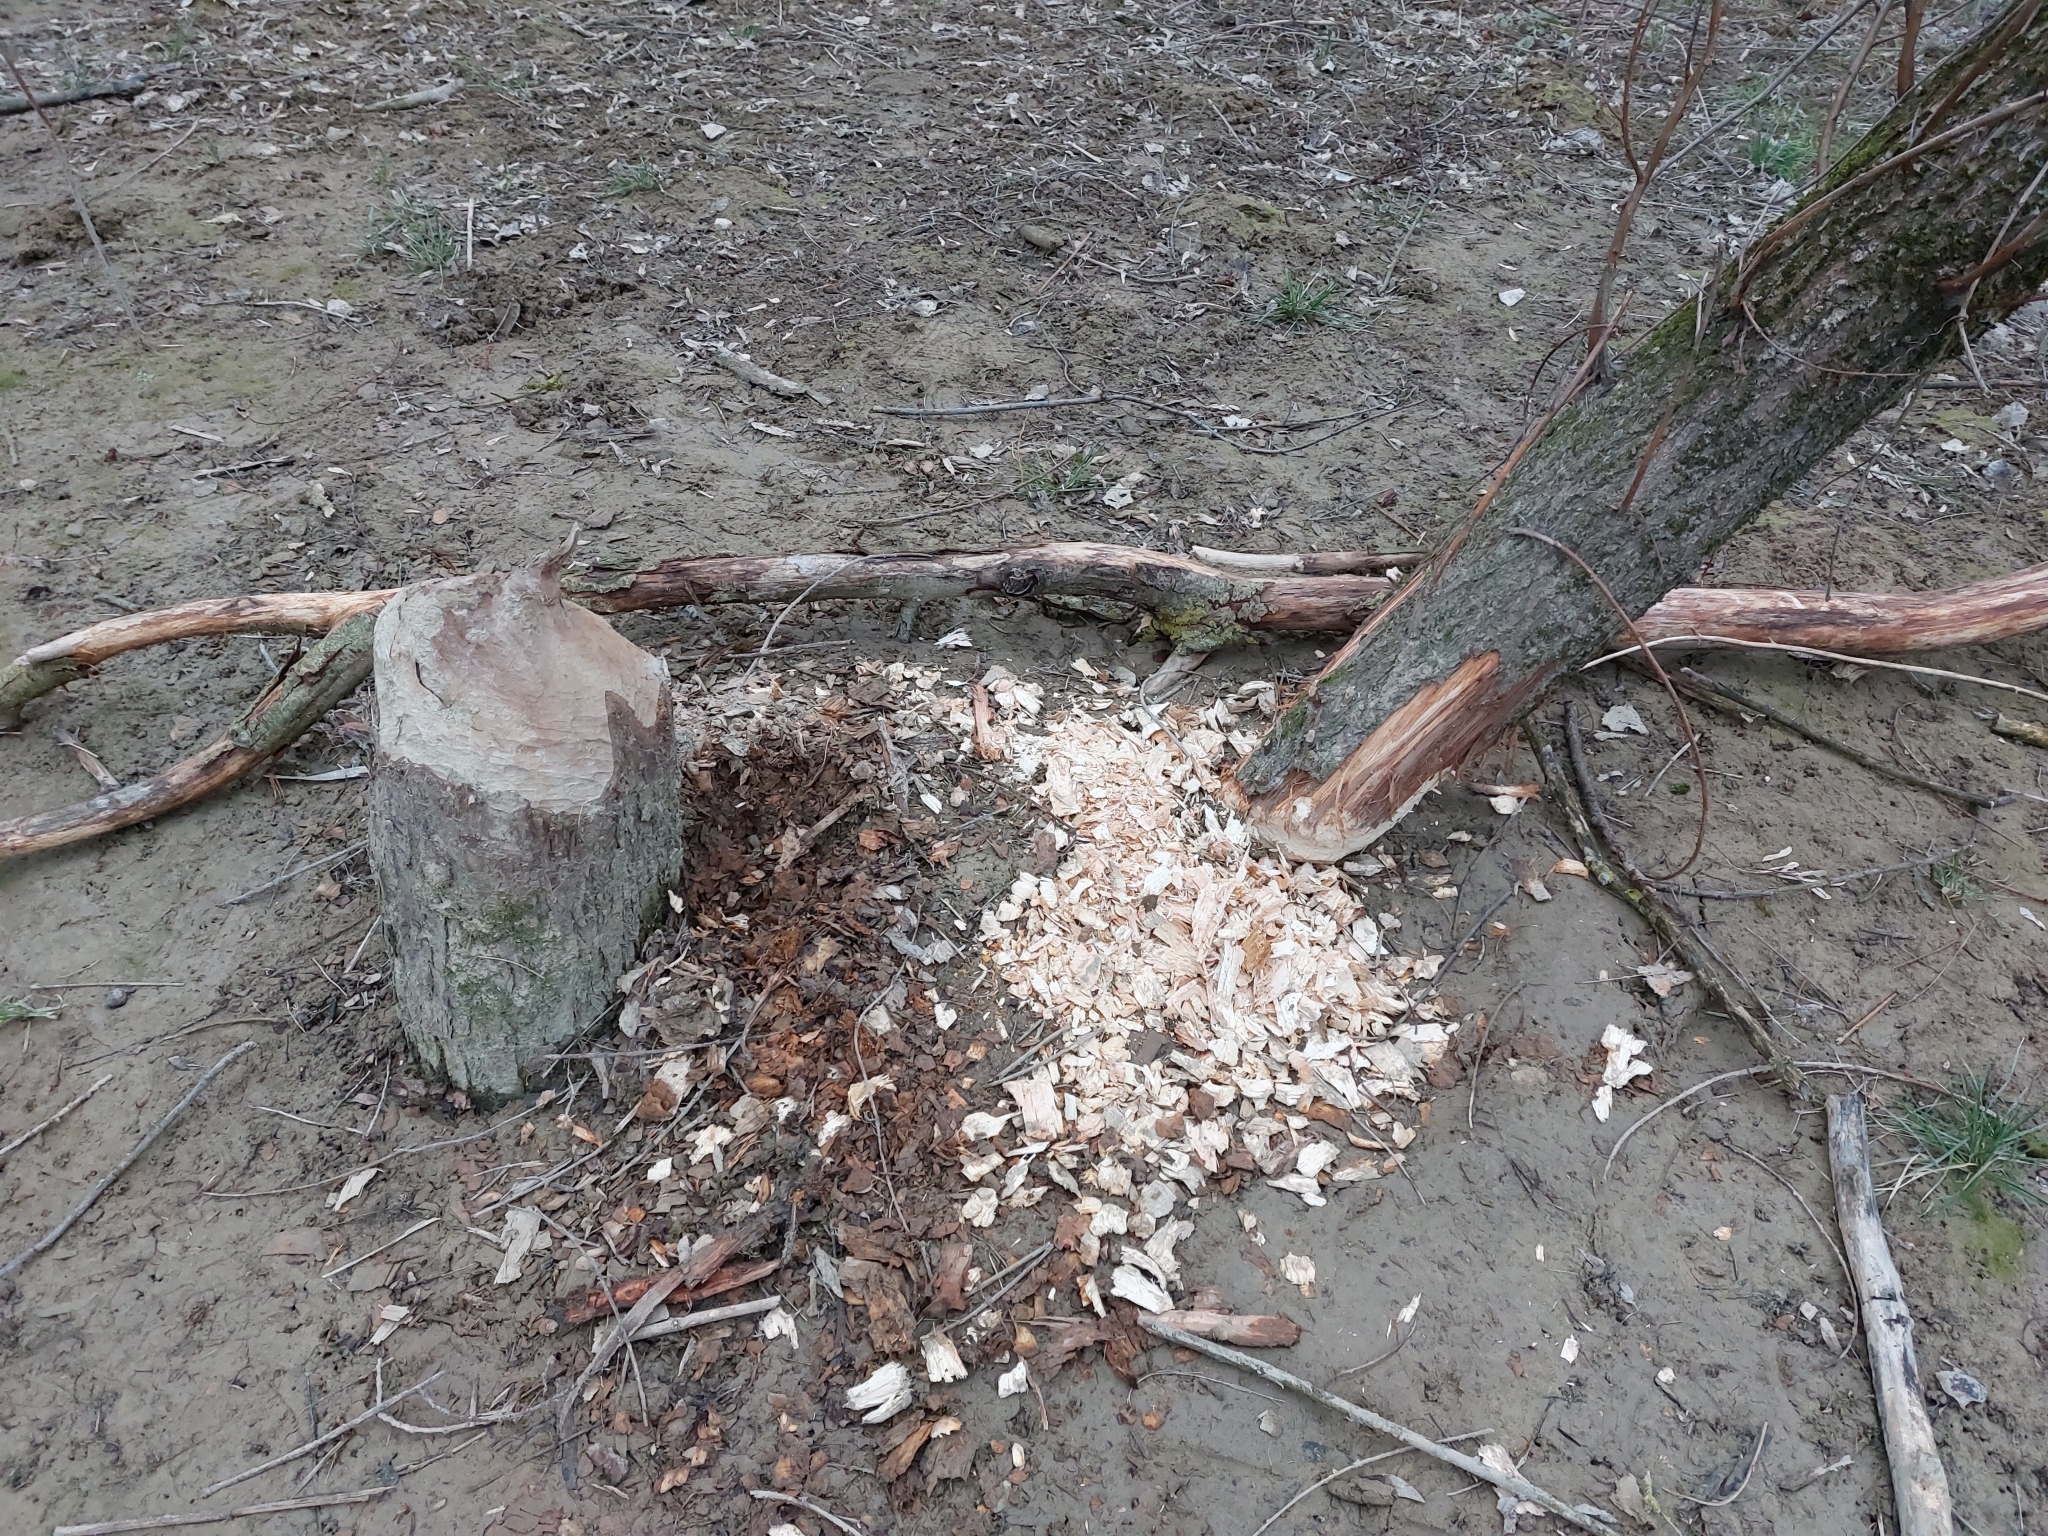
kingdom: Animalia
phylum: Chordata
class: Mammalia
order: Rodentia
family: Castoridae
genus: Castor
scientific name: Castor fiber
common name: Eurasian beaver
